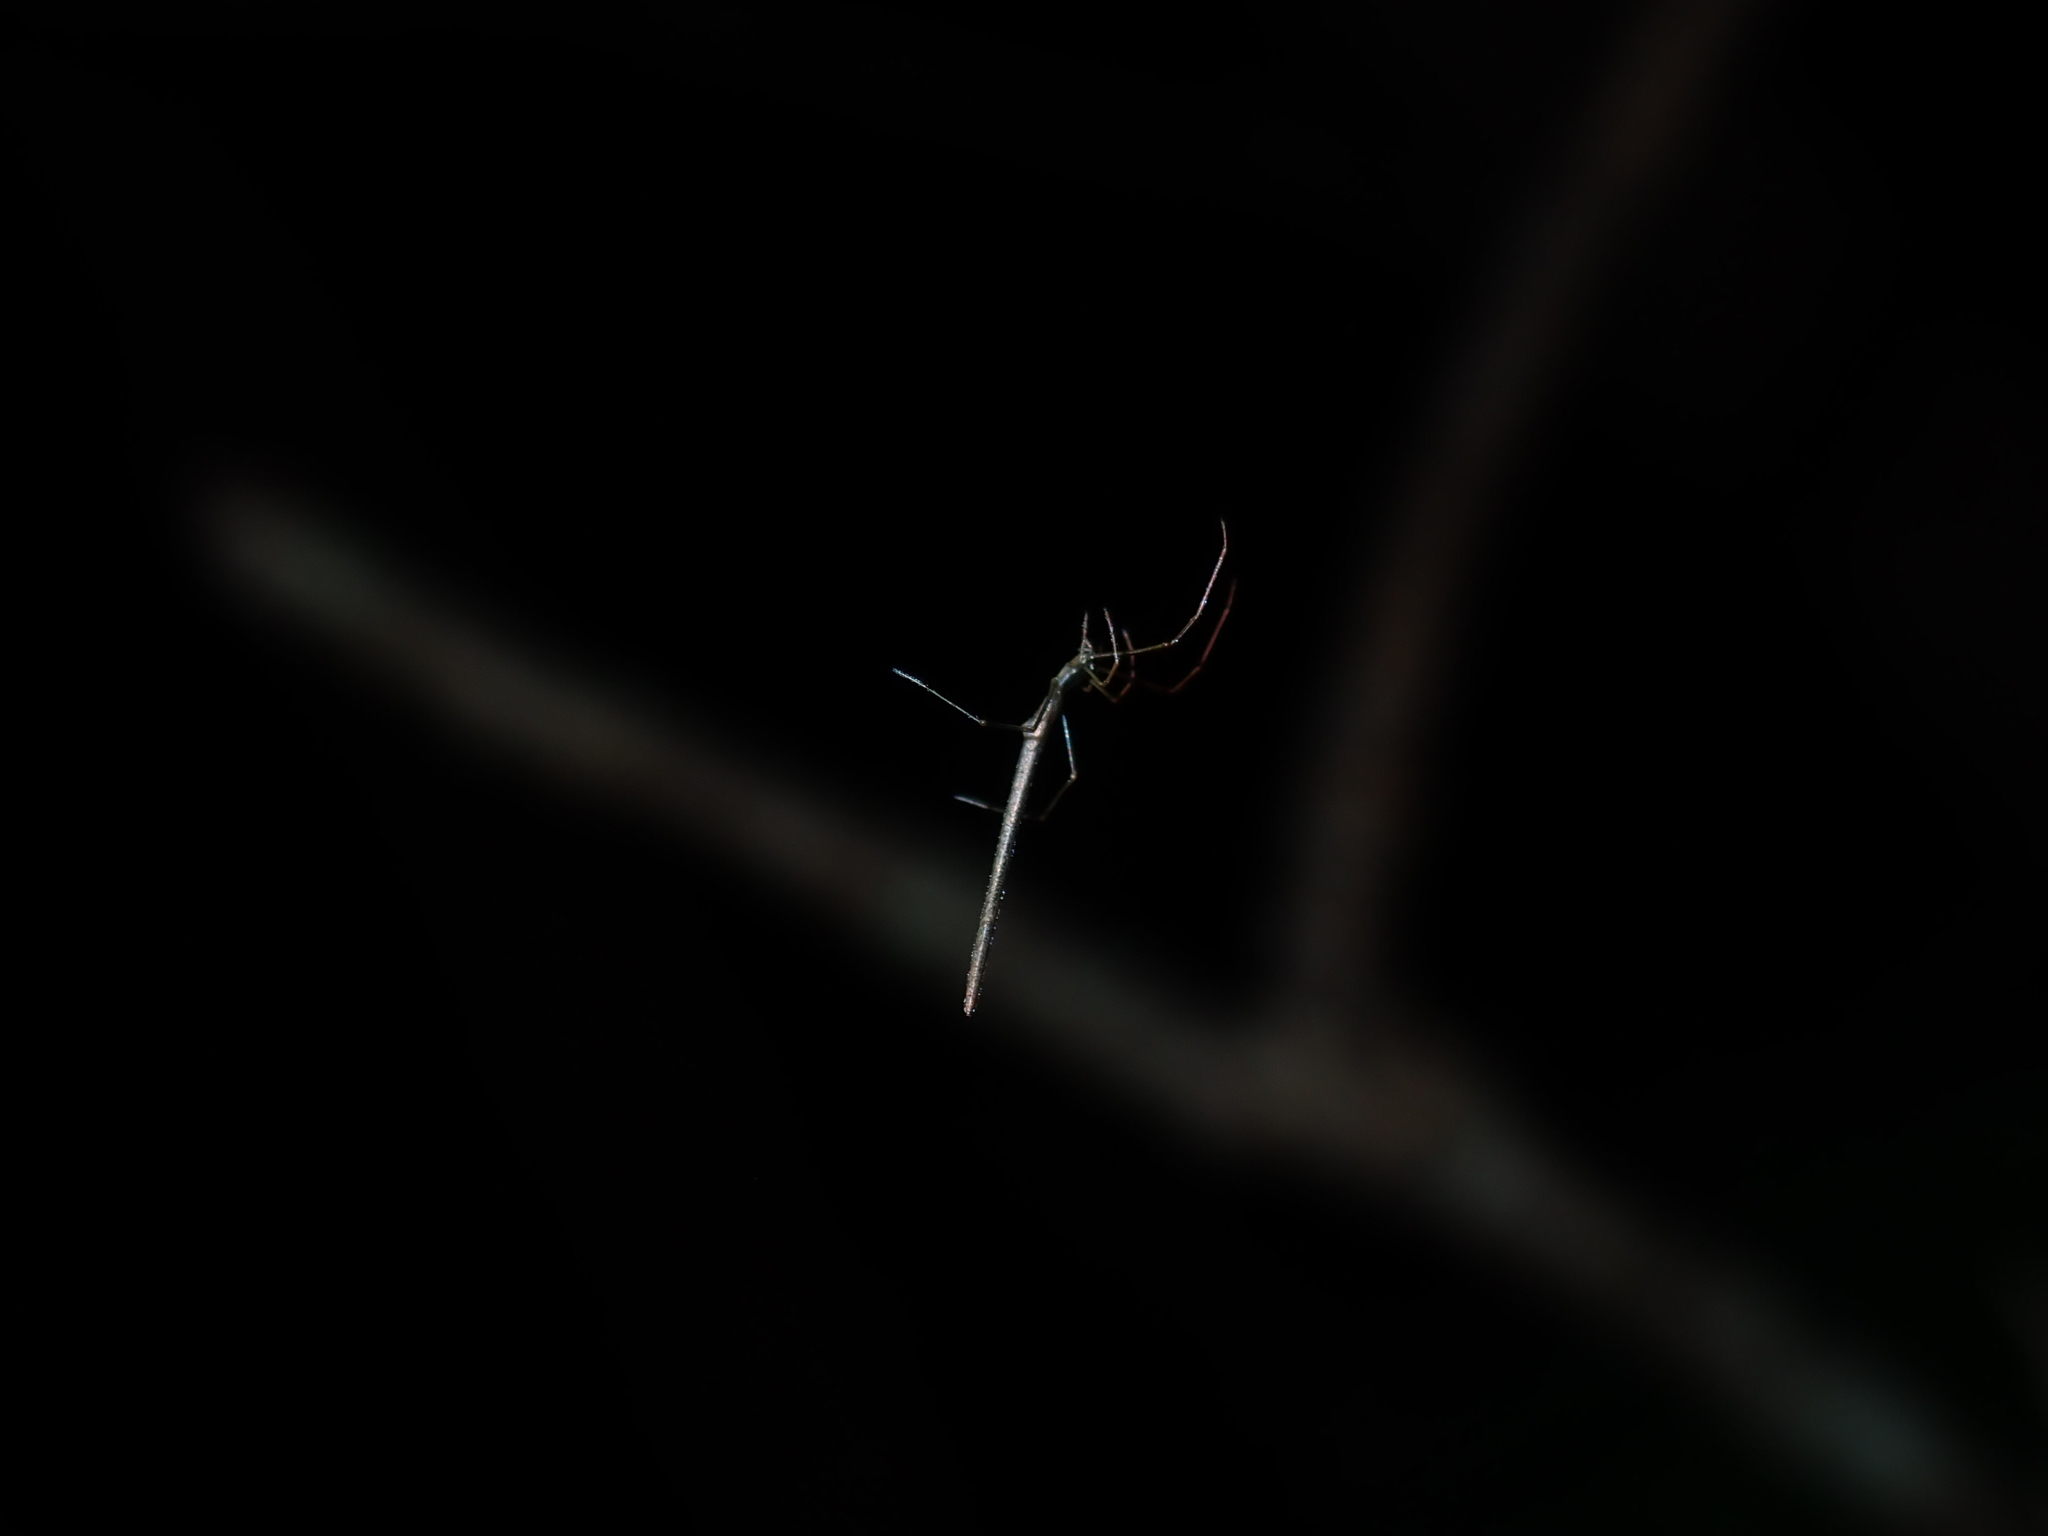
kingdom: Animalia
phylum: Arthropoda
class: Arachnida
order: Araneae
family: Theridiidae
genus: Ariamnes
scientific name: Ariamnes colubrinus
